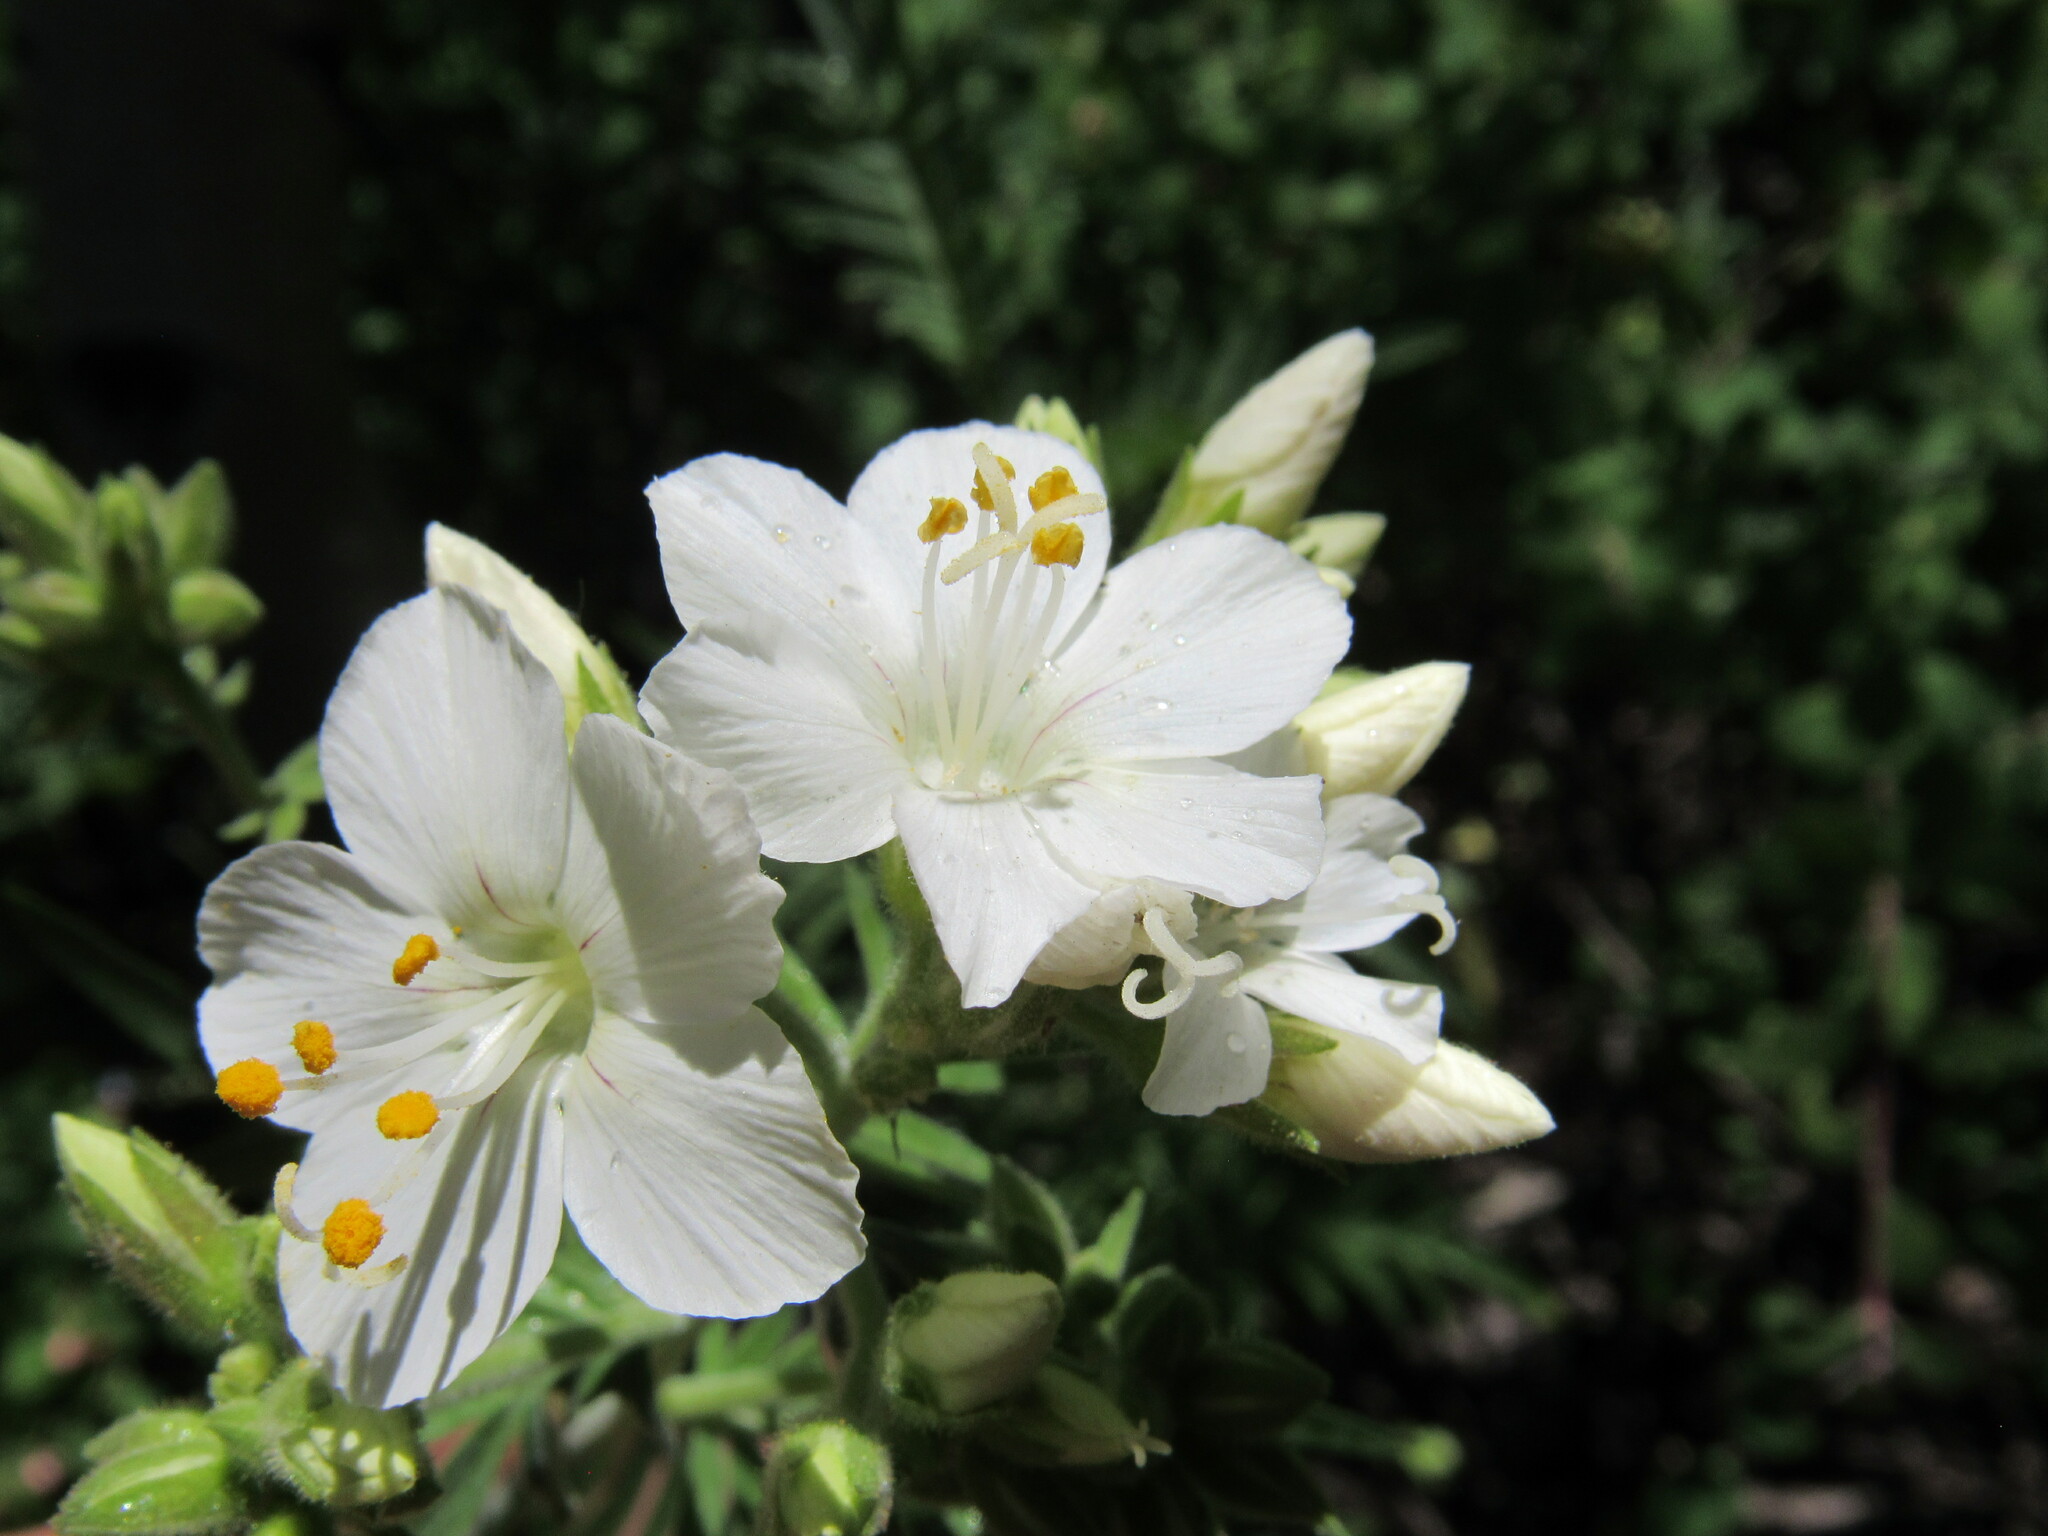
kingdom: Plantae
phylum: Tracheophyta
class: Magnoliopsida
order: Ericales
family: Polemoniaceae
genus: Polemonium
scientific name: Polemonium foliosissimum
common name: Leafy jacob's-ladder
